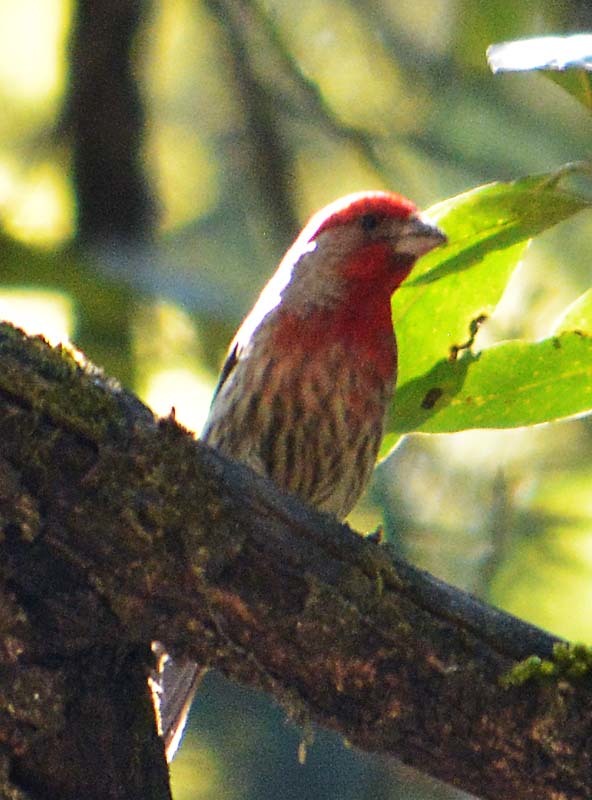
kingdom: Animalia
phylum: Chordata
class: Aves
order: Passeriformes
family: Fringillidae
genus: Haemorhous
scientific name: Haemorhous mexicanus
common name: House finch
